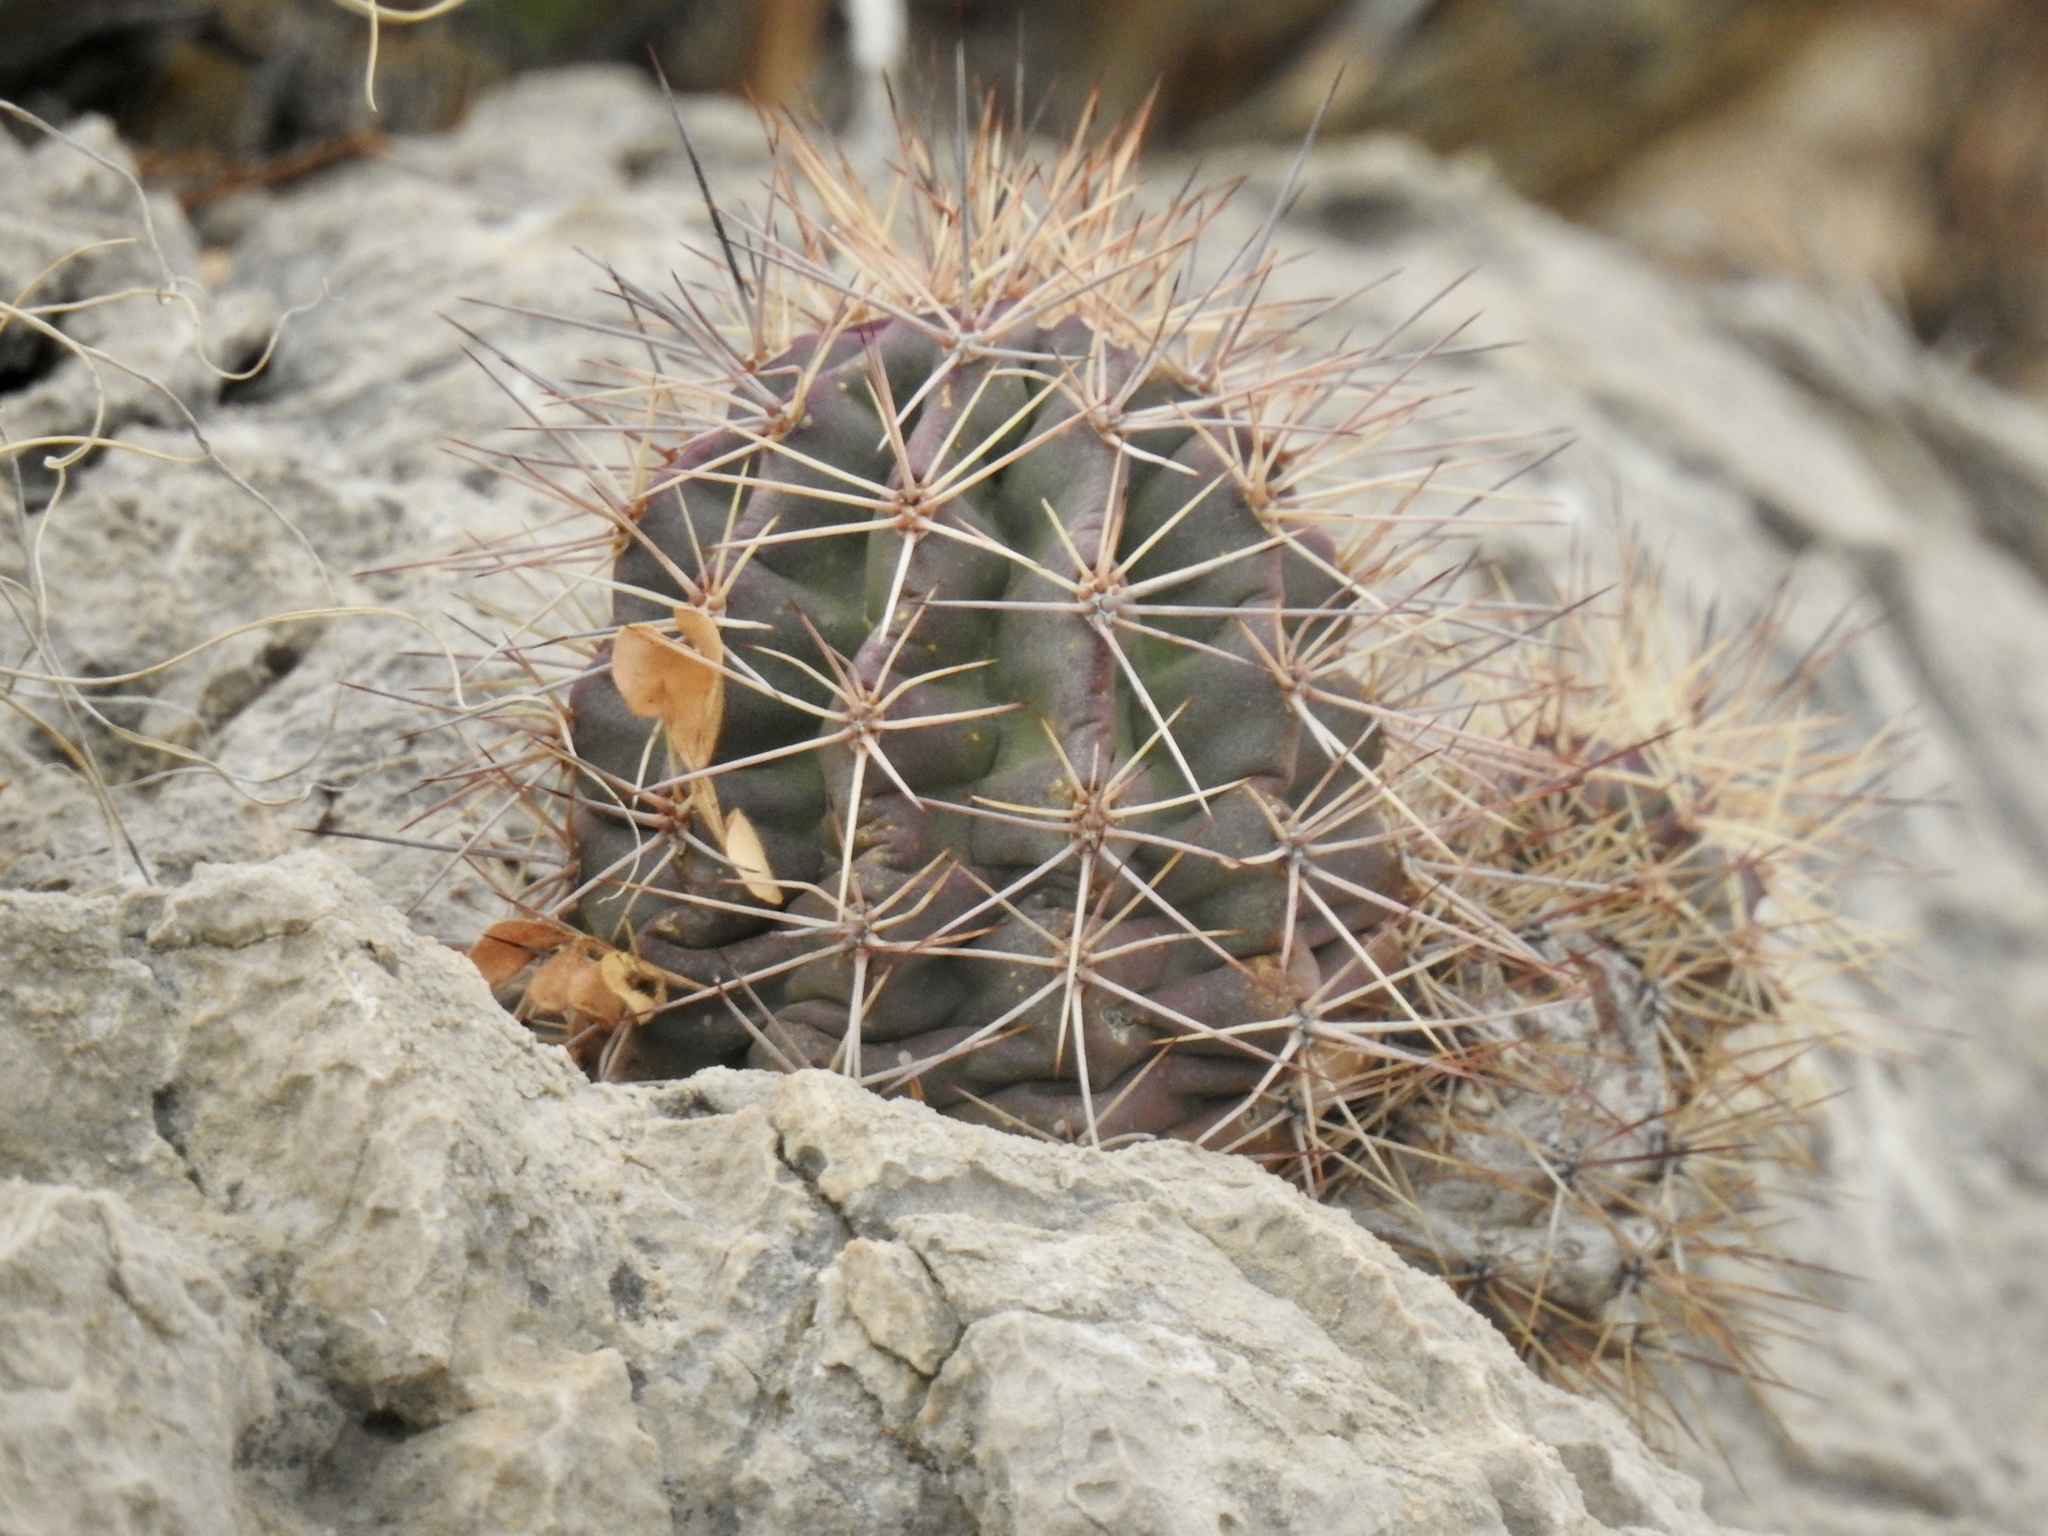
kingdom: Plantae
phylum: Tracheophyta
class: Magnoliopsida
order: Caryophyllales
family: Cactaceae
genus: Echinocereus
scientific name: Echinocereus coccineus
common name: Scarlet hedgehog cactus
